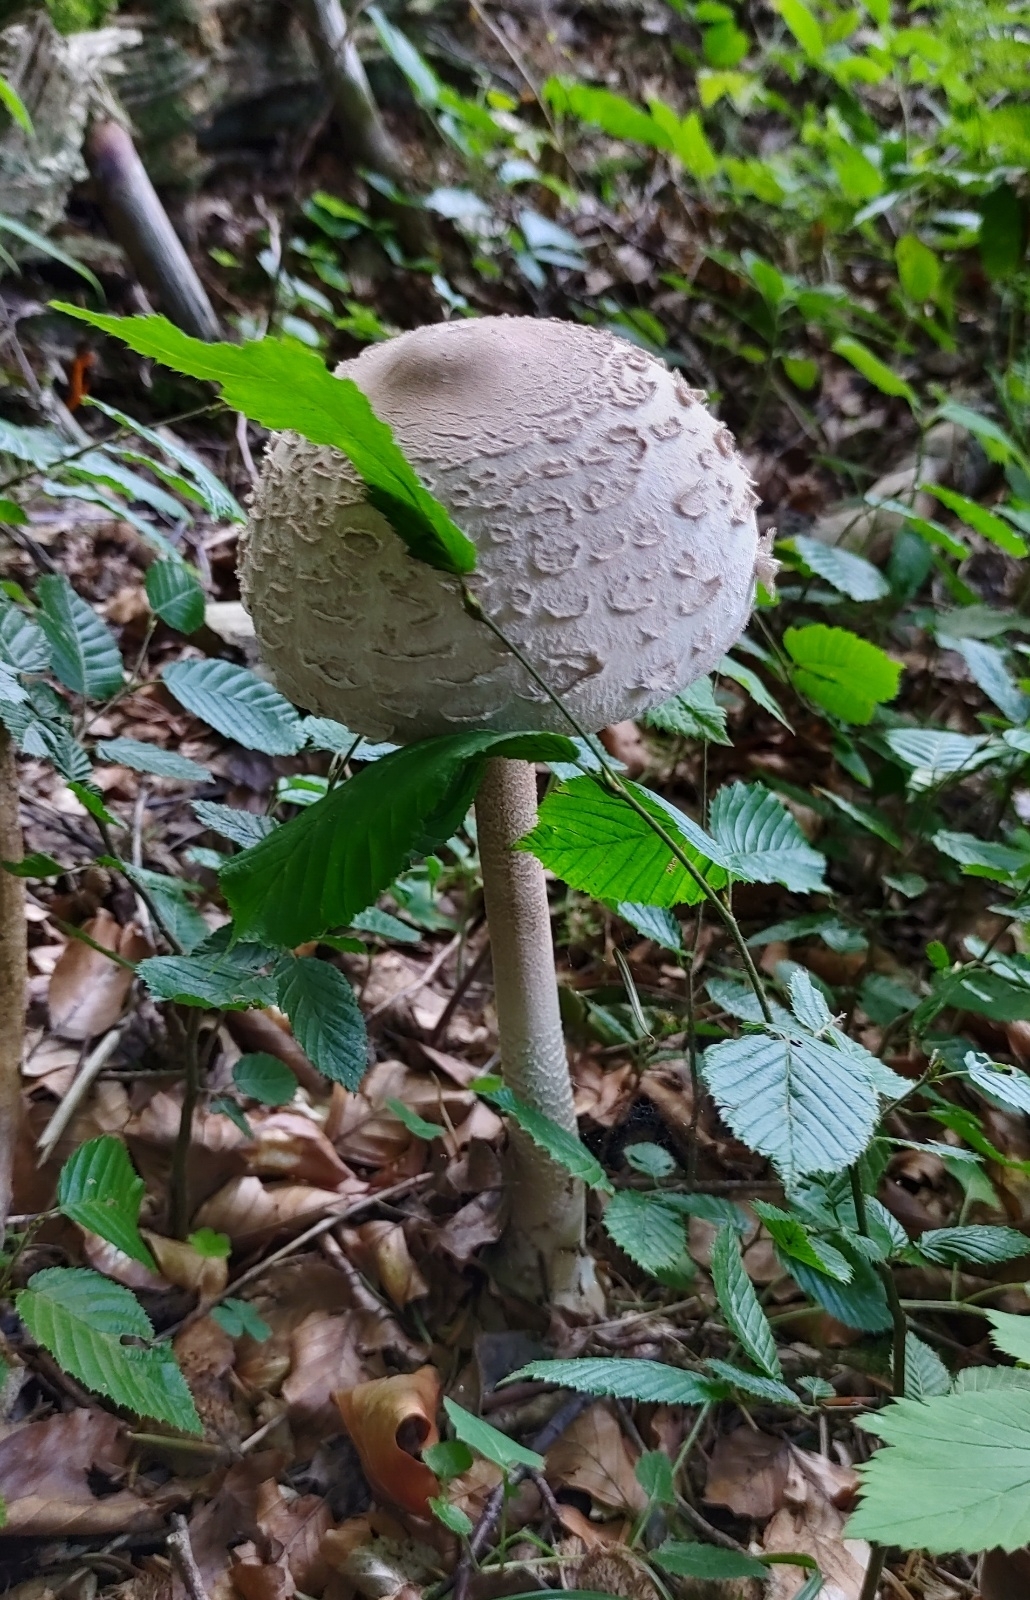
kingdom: Fungi
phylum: Basidiomycota
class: Agaricomycetes
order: Agaricales
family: Agaricaceae
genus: Macrolepiota
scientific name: Macrolepiota procera
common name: Parasol
